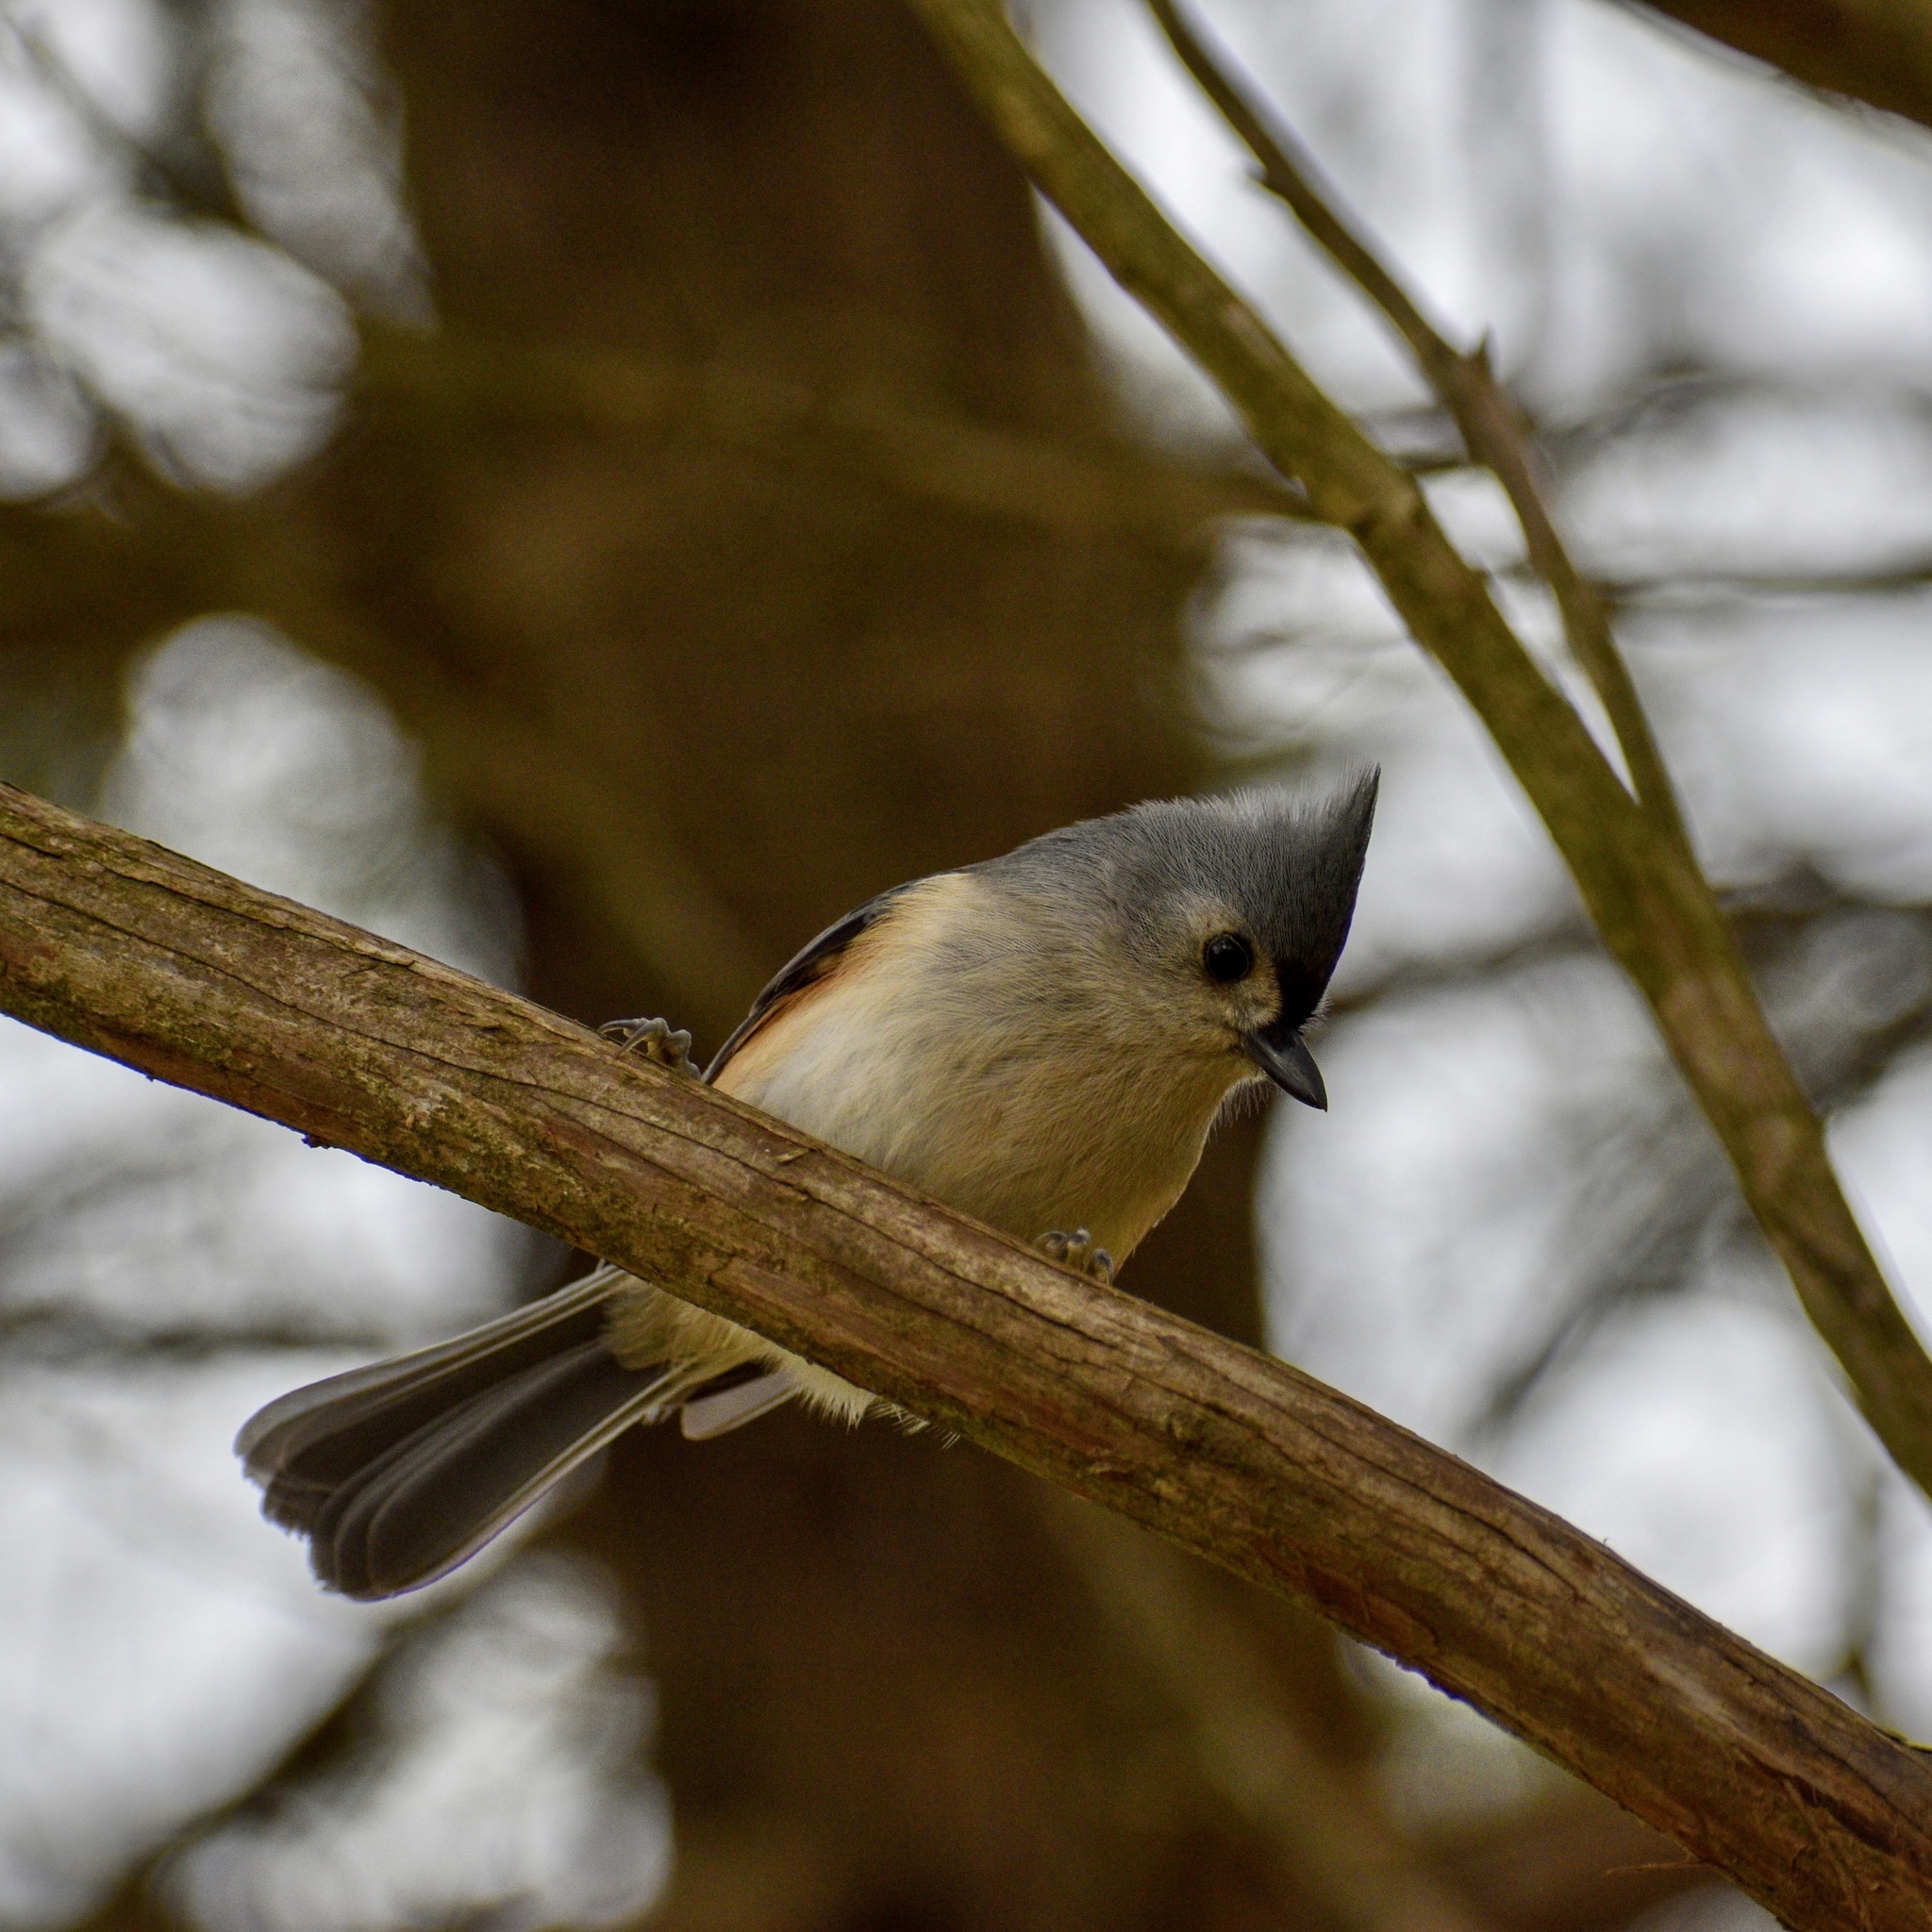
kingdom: Animalia
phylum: Chordata
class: Aves
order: Passeriformes
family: Paridae
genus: Baeolophus
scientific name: Baeolophus bicolor
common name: Tufted titmouse
